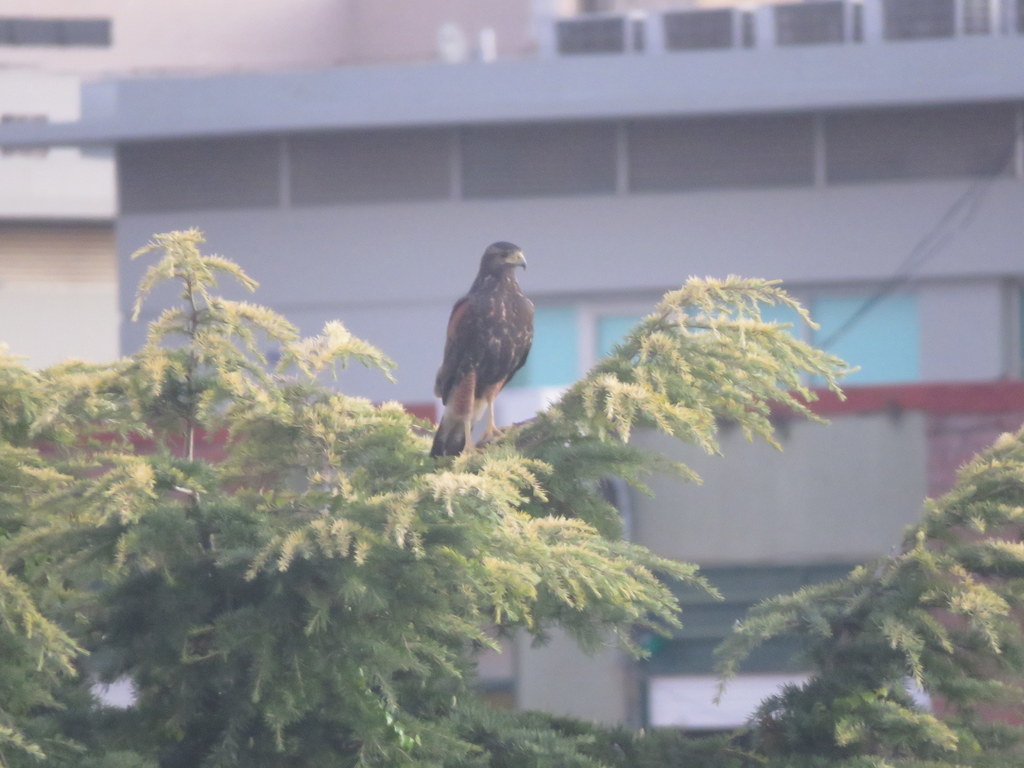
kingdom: Animalia
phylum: Chordata
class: Aves
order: Accipitriformes
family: Accipitridae
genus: Parabuteo
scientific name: Parabuteo unicinctus
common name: Harris's hawk
